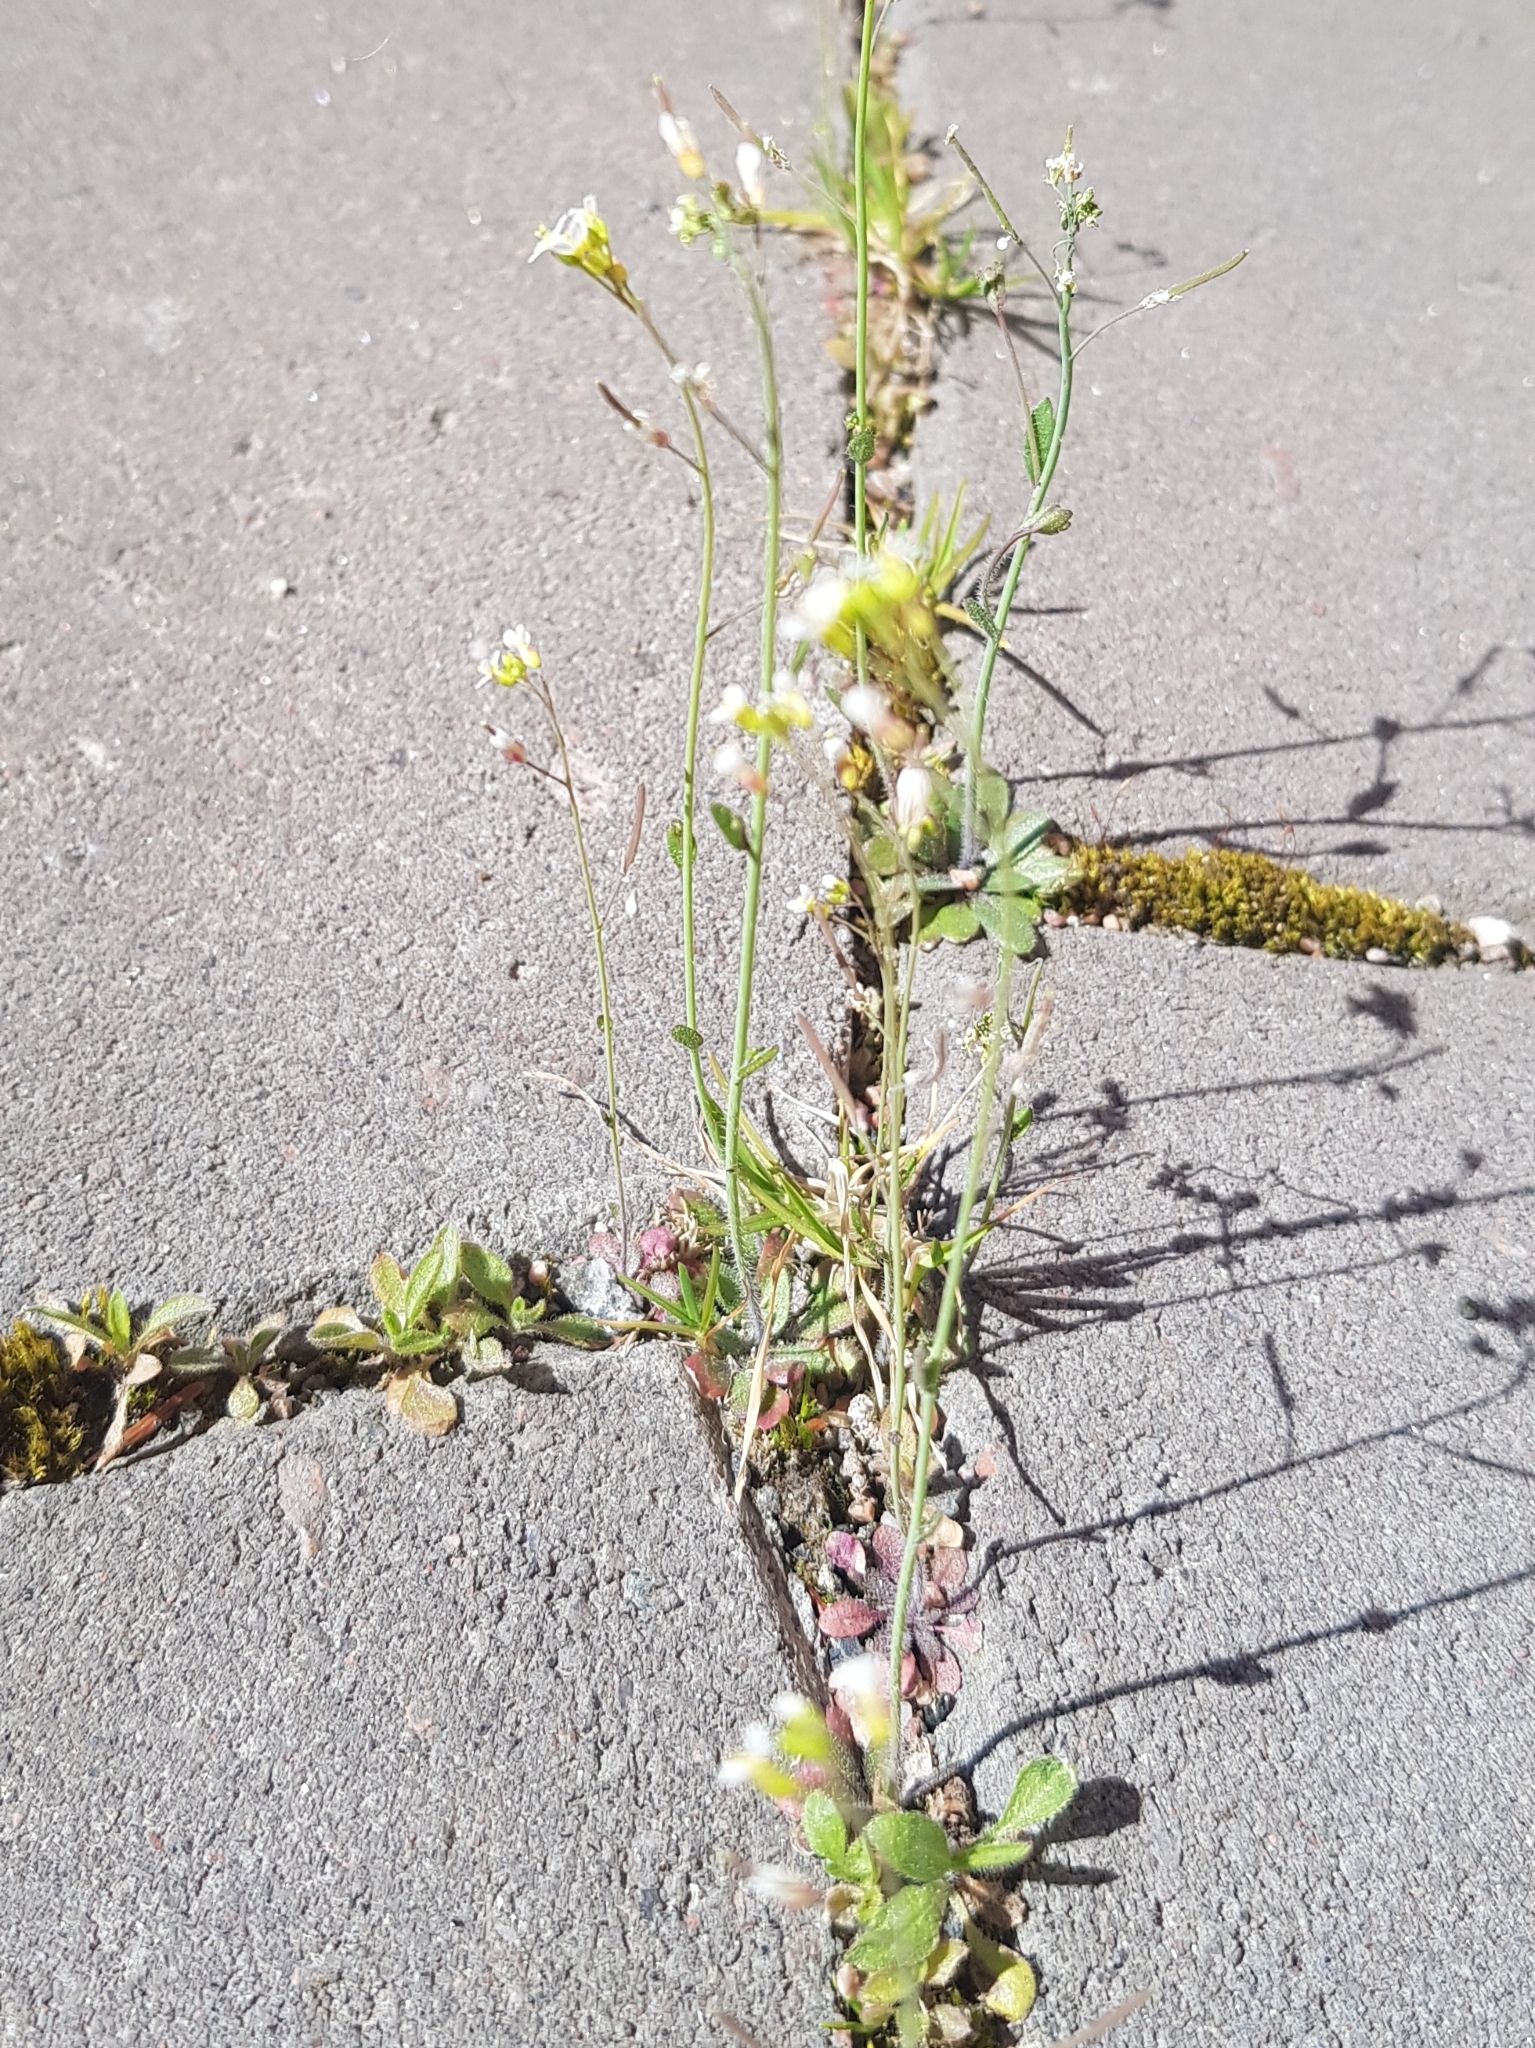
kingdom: Plantae
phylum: Tracheophyta
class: Magnoliopsida
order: Brassicales
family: Brassicaceae
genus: Arabidopsis
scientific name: Arabidopsis thaliana
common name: Thale cress
